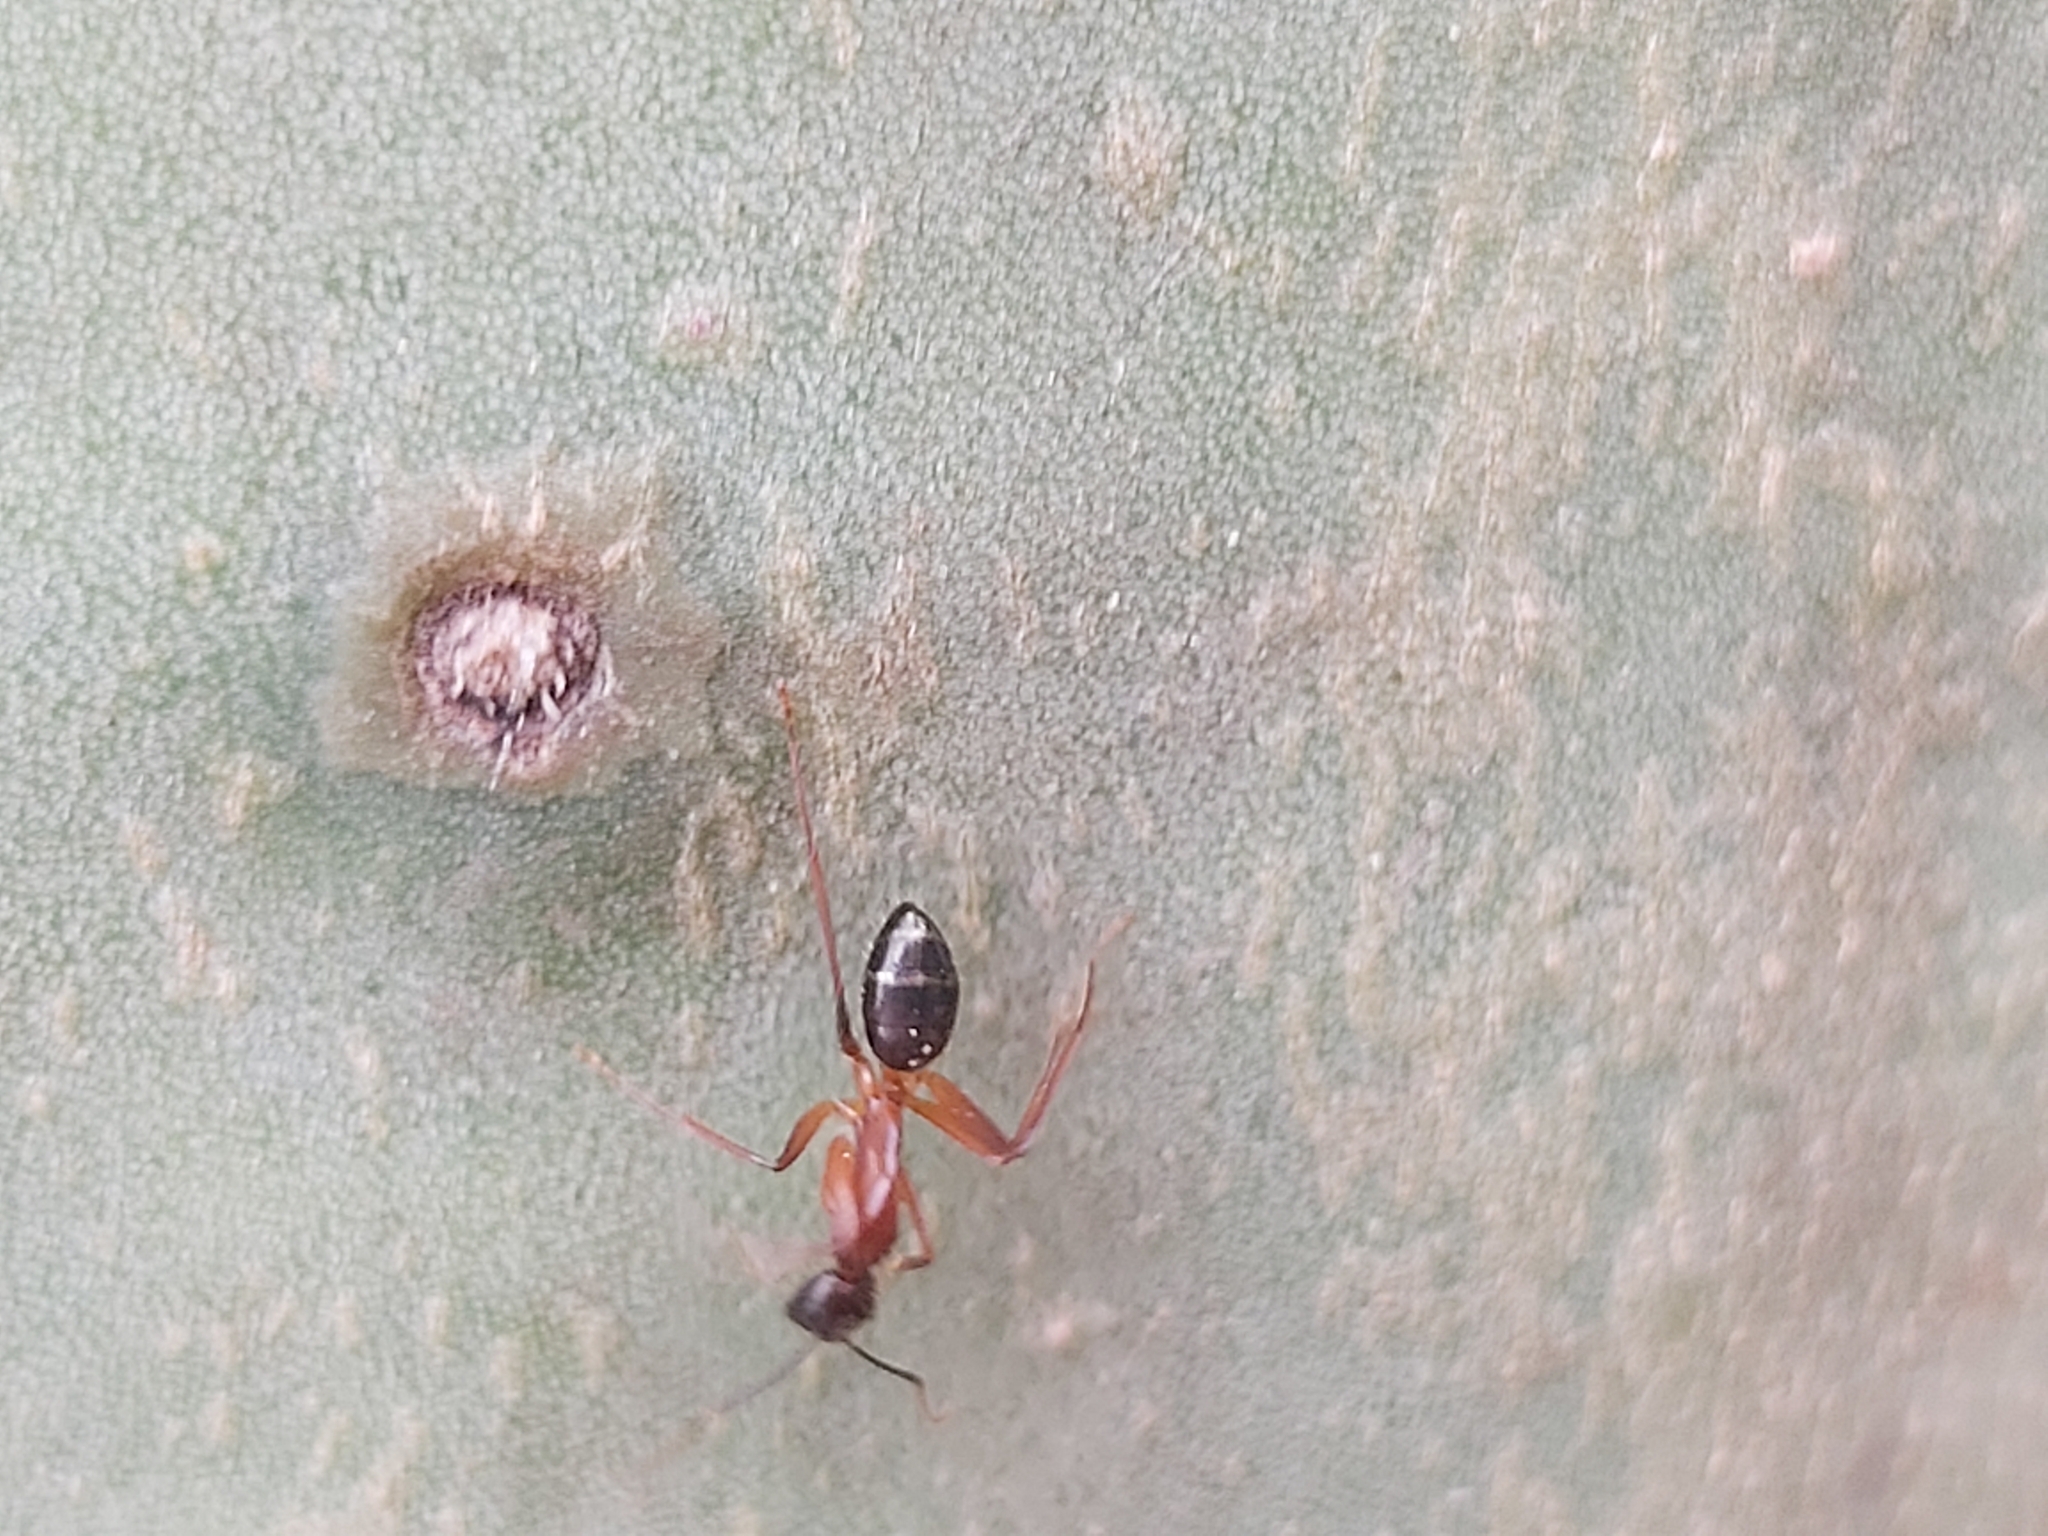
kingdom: Animalia
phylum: Arthropoda
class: Insecta
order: Hymenoptera
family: Formicidae
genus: Camponotus
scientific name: Camponotus barbaricus
